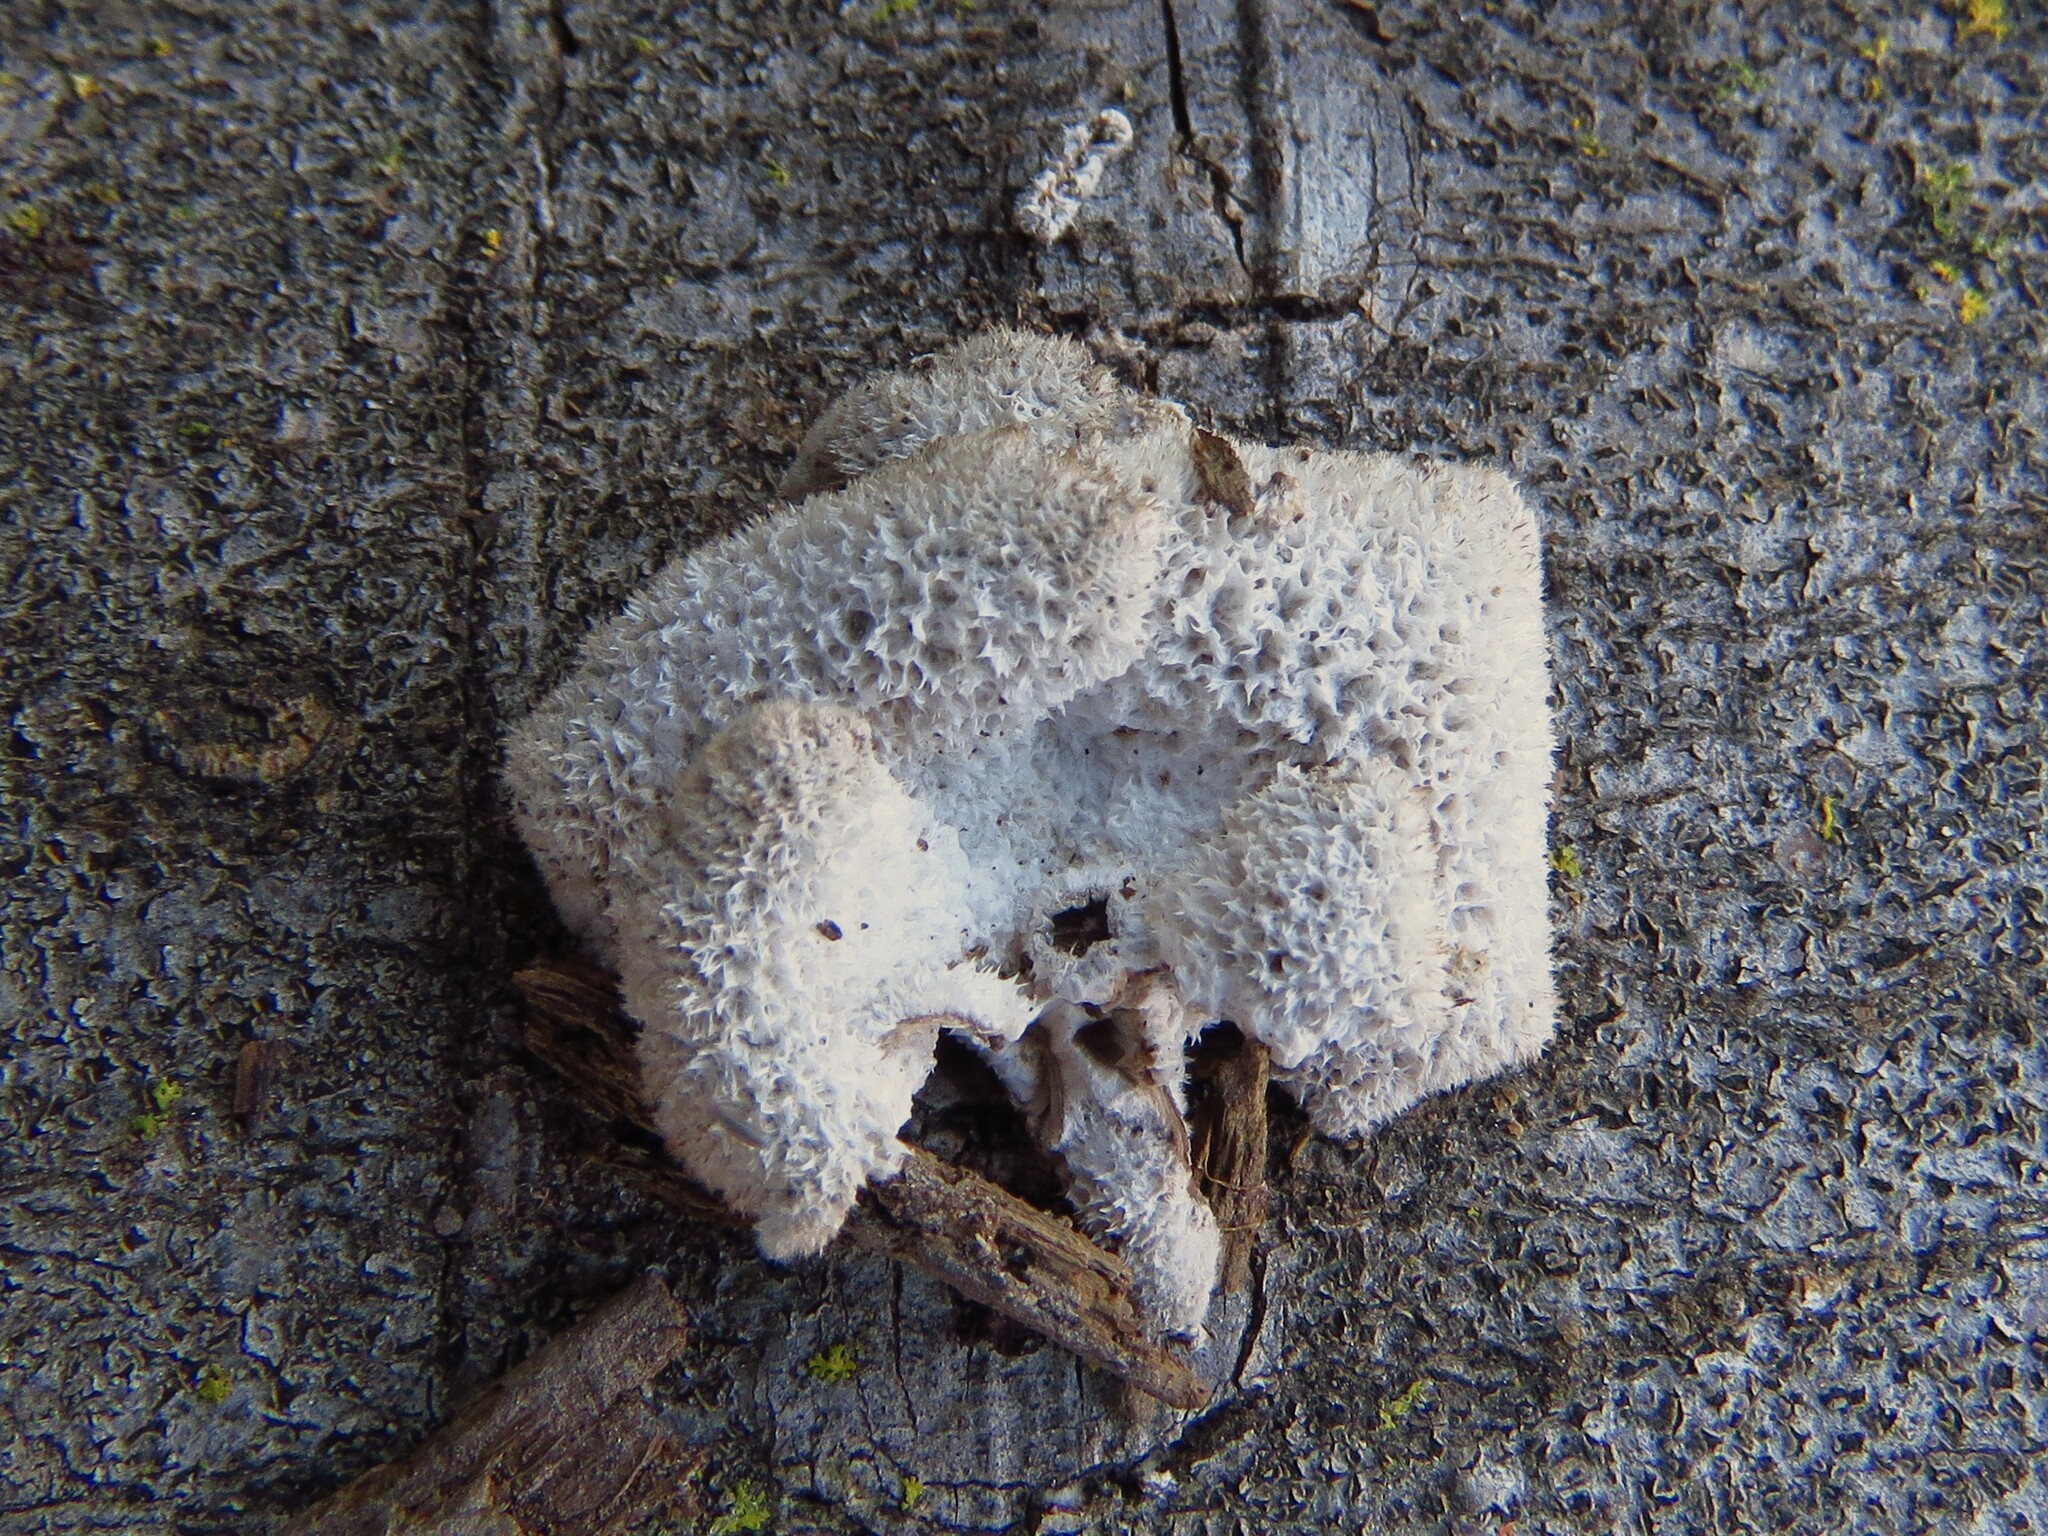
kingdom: Fungi
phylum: Basidiomycota
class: Agaricomycetes
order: Agaricales
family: Schizophyllaceae
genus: Schizophyllum
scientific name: Schizophyllum commune
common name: Common porecrust
